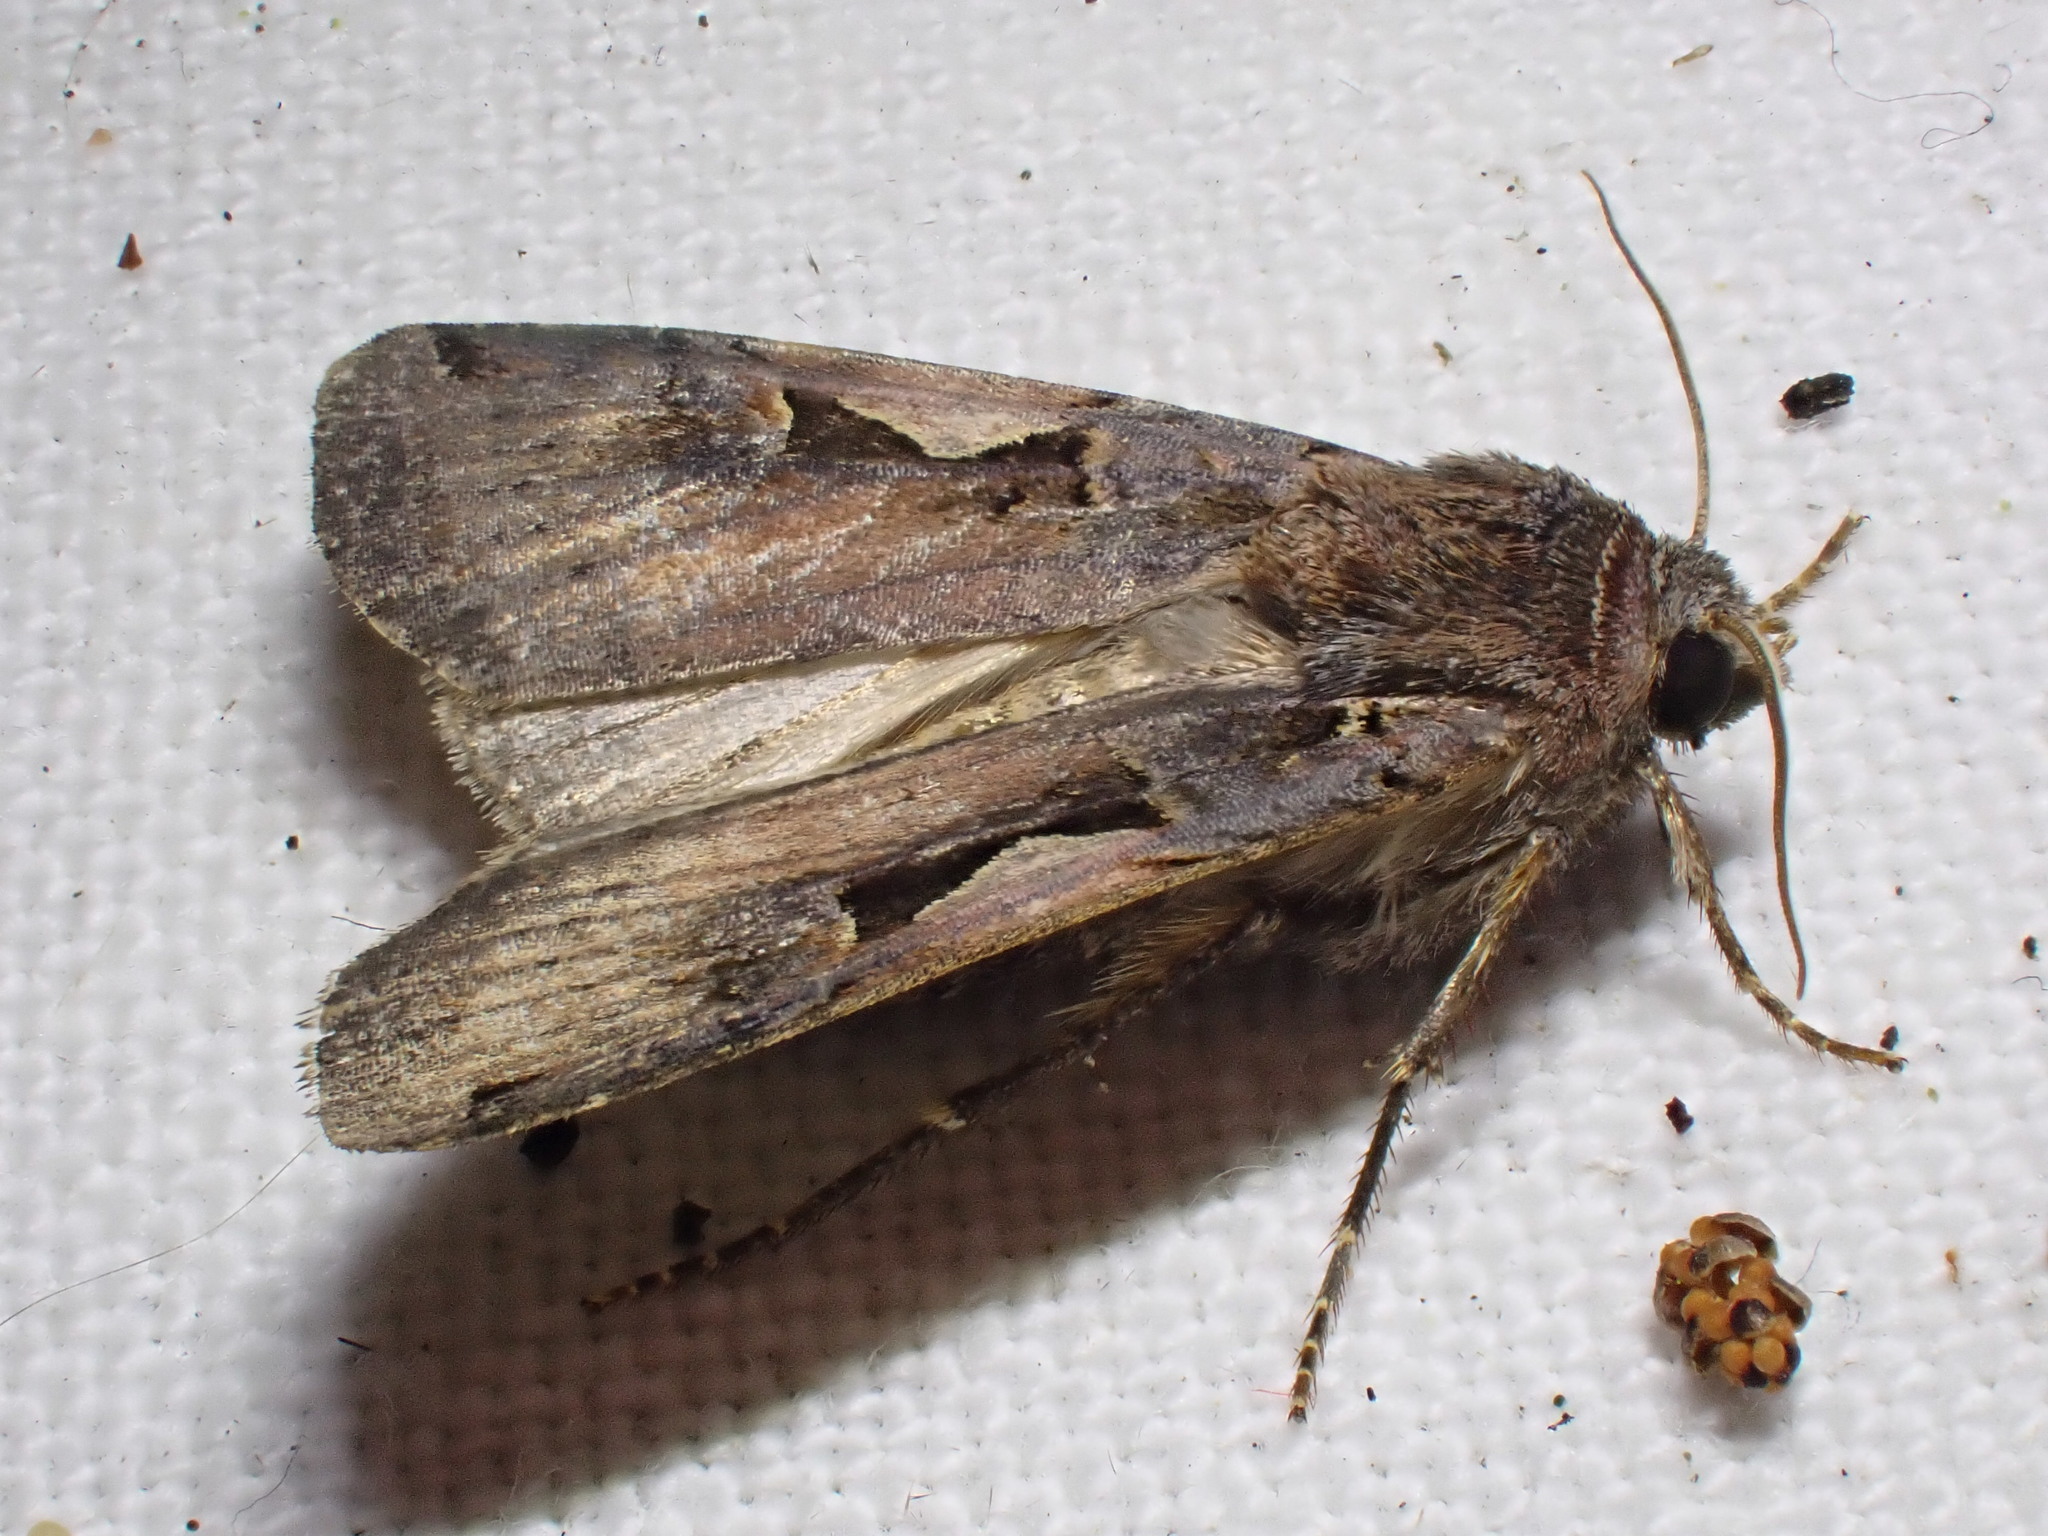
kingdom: Animalia
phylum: Arthropoda
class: Insecta
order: Lepidoptera
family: Noctuidae
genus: Xestia
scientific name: Xestia c-nigrum
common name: Setaceous hebrew character
